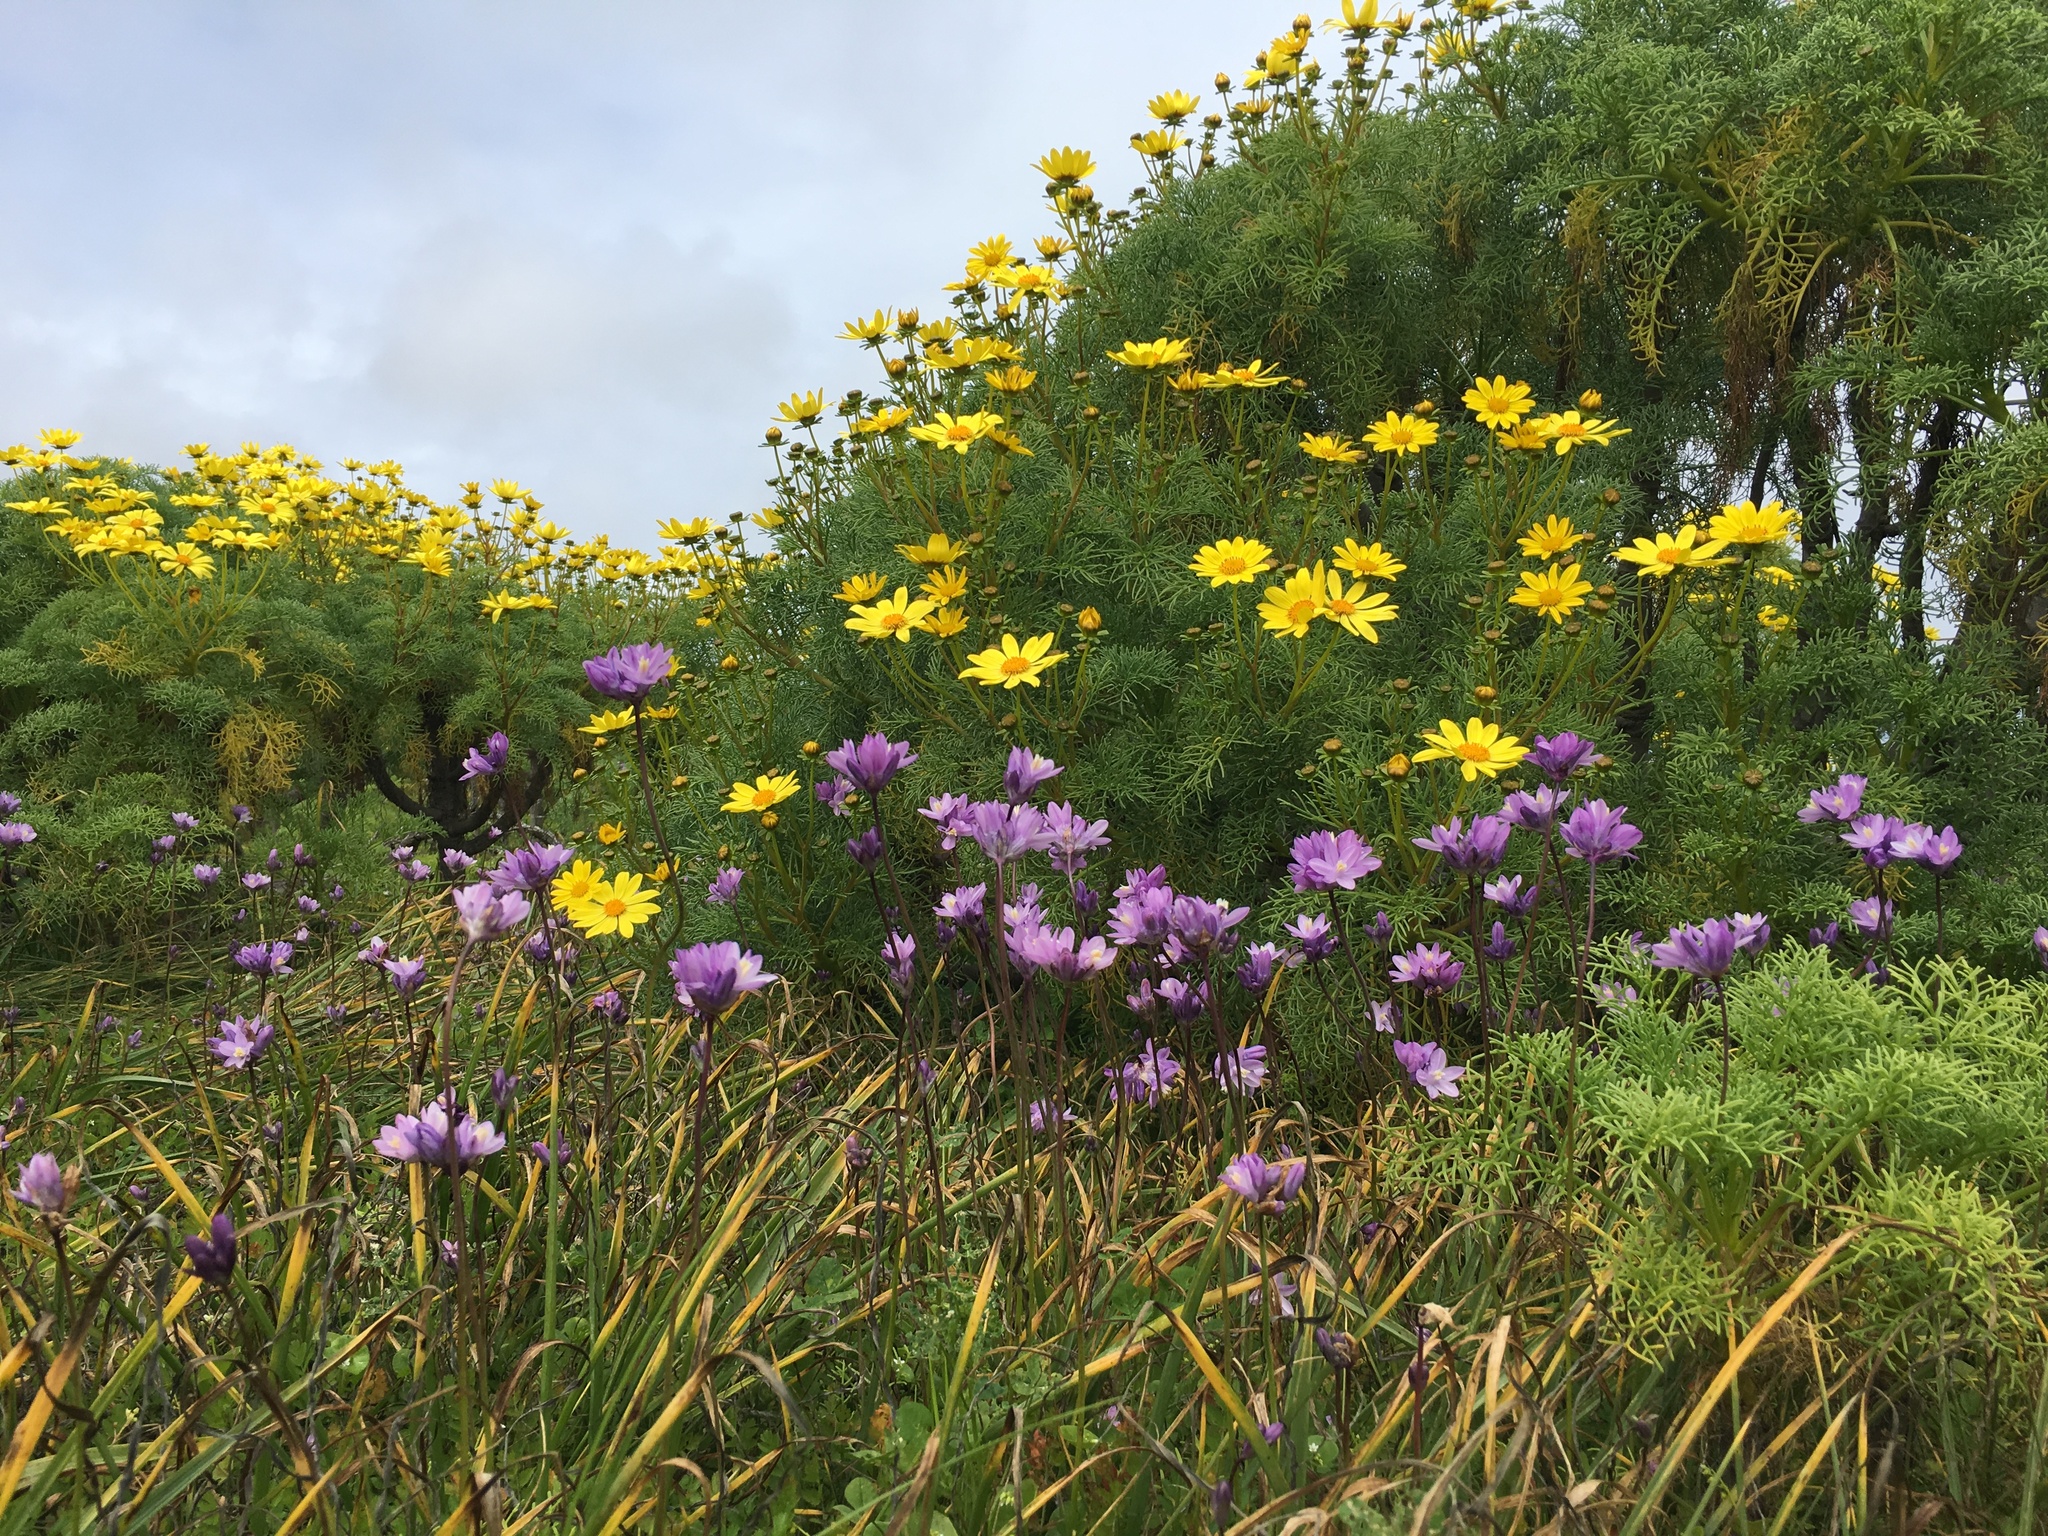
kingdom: Plantae
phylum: Tracheophyta
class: Magnoliopsida
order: Asterales
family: Asteraceae
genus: Coreopsis
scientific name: Coreopsis gigantea
